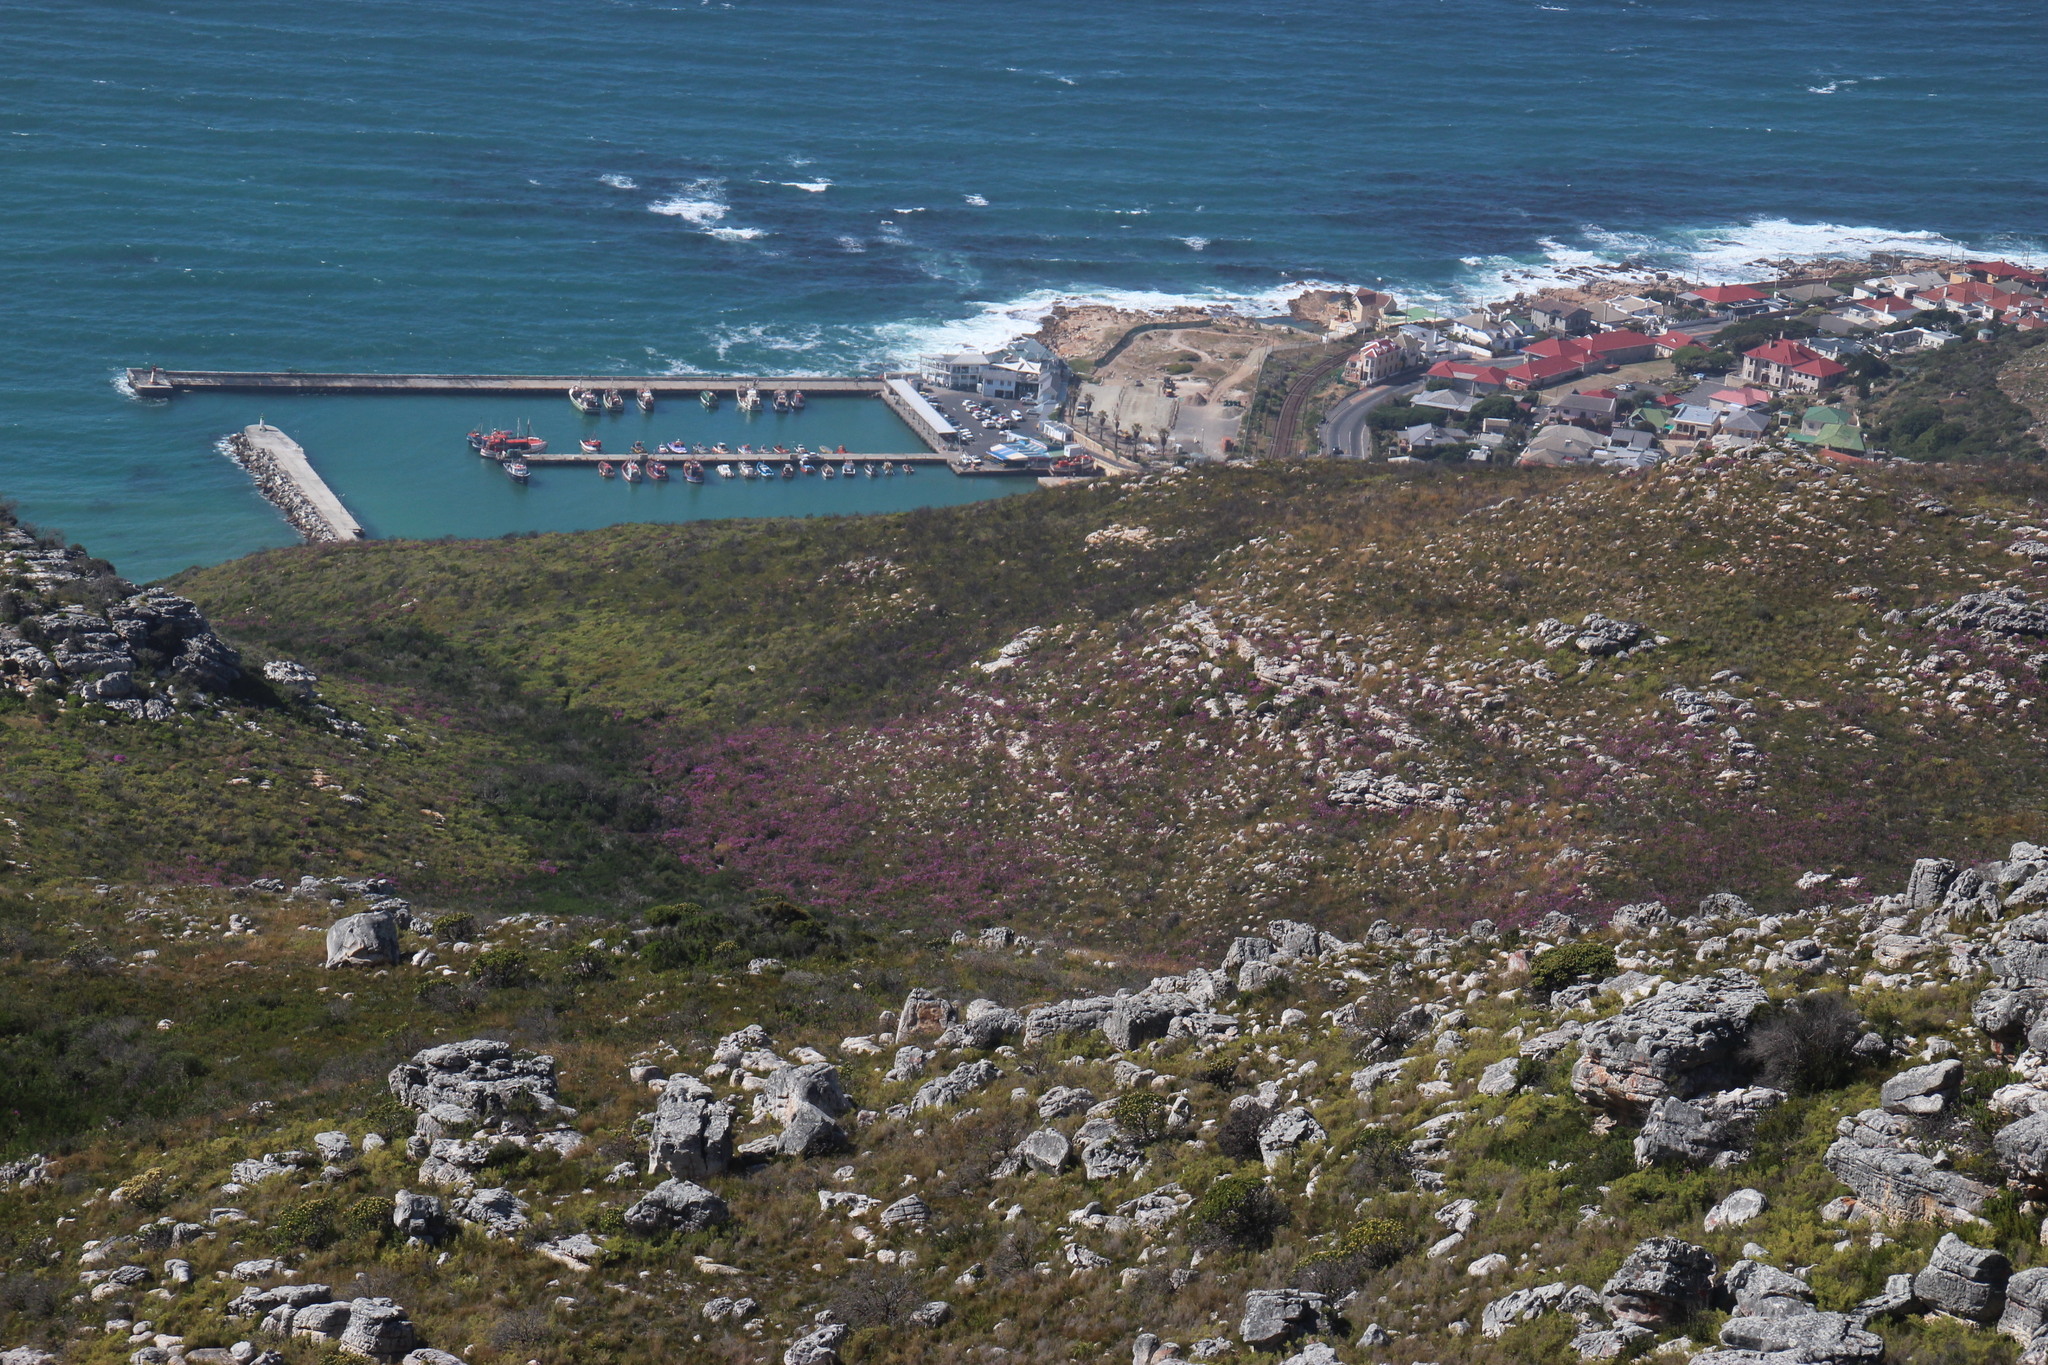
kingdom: Plantae
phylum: Tracheophyta
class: Magnoliopsida
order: Geraniales
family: Geraniaceae
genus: Pelargonium
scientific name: Pelargonium cucullatum
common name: Tree pelargonium
